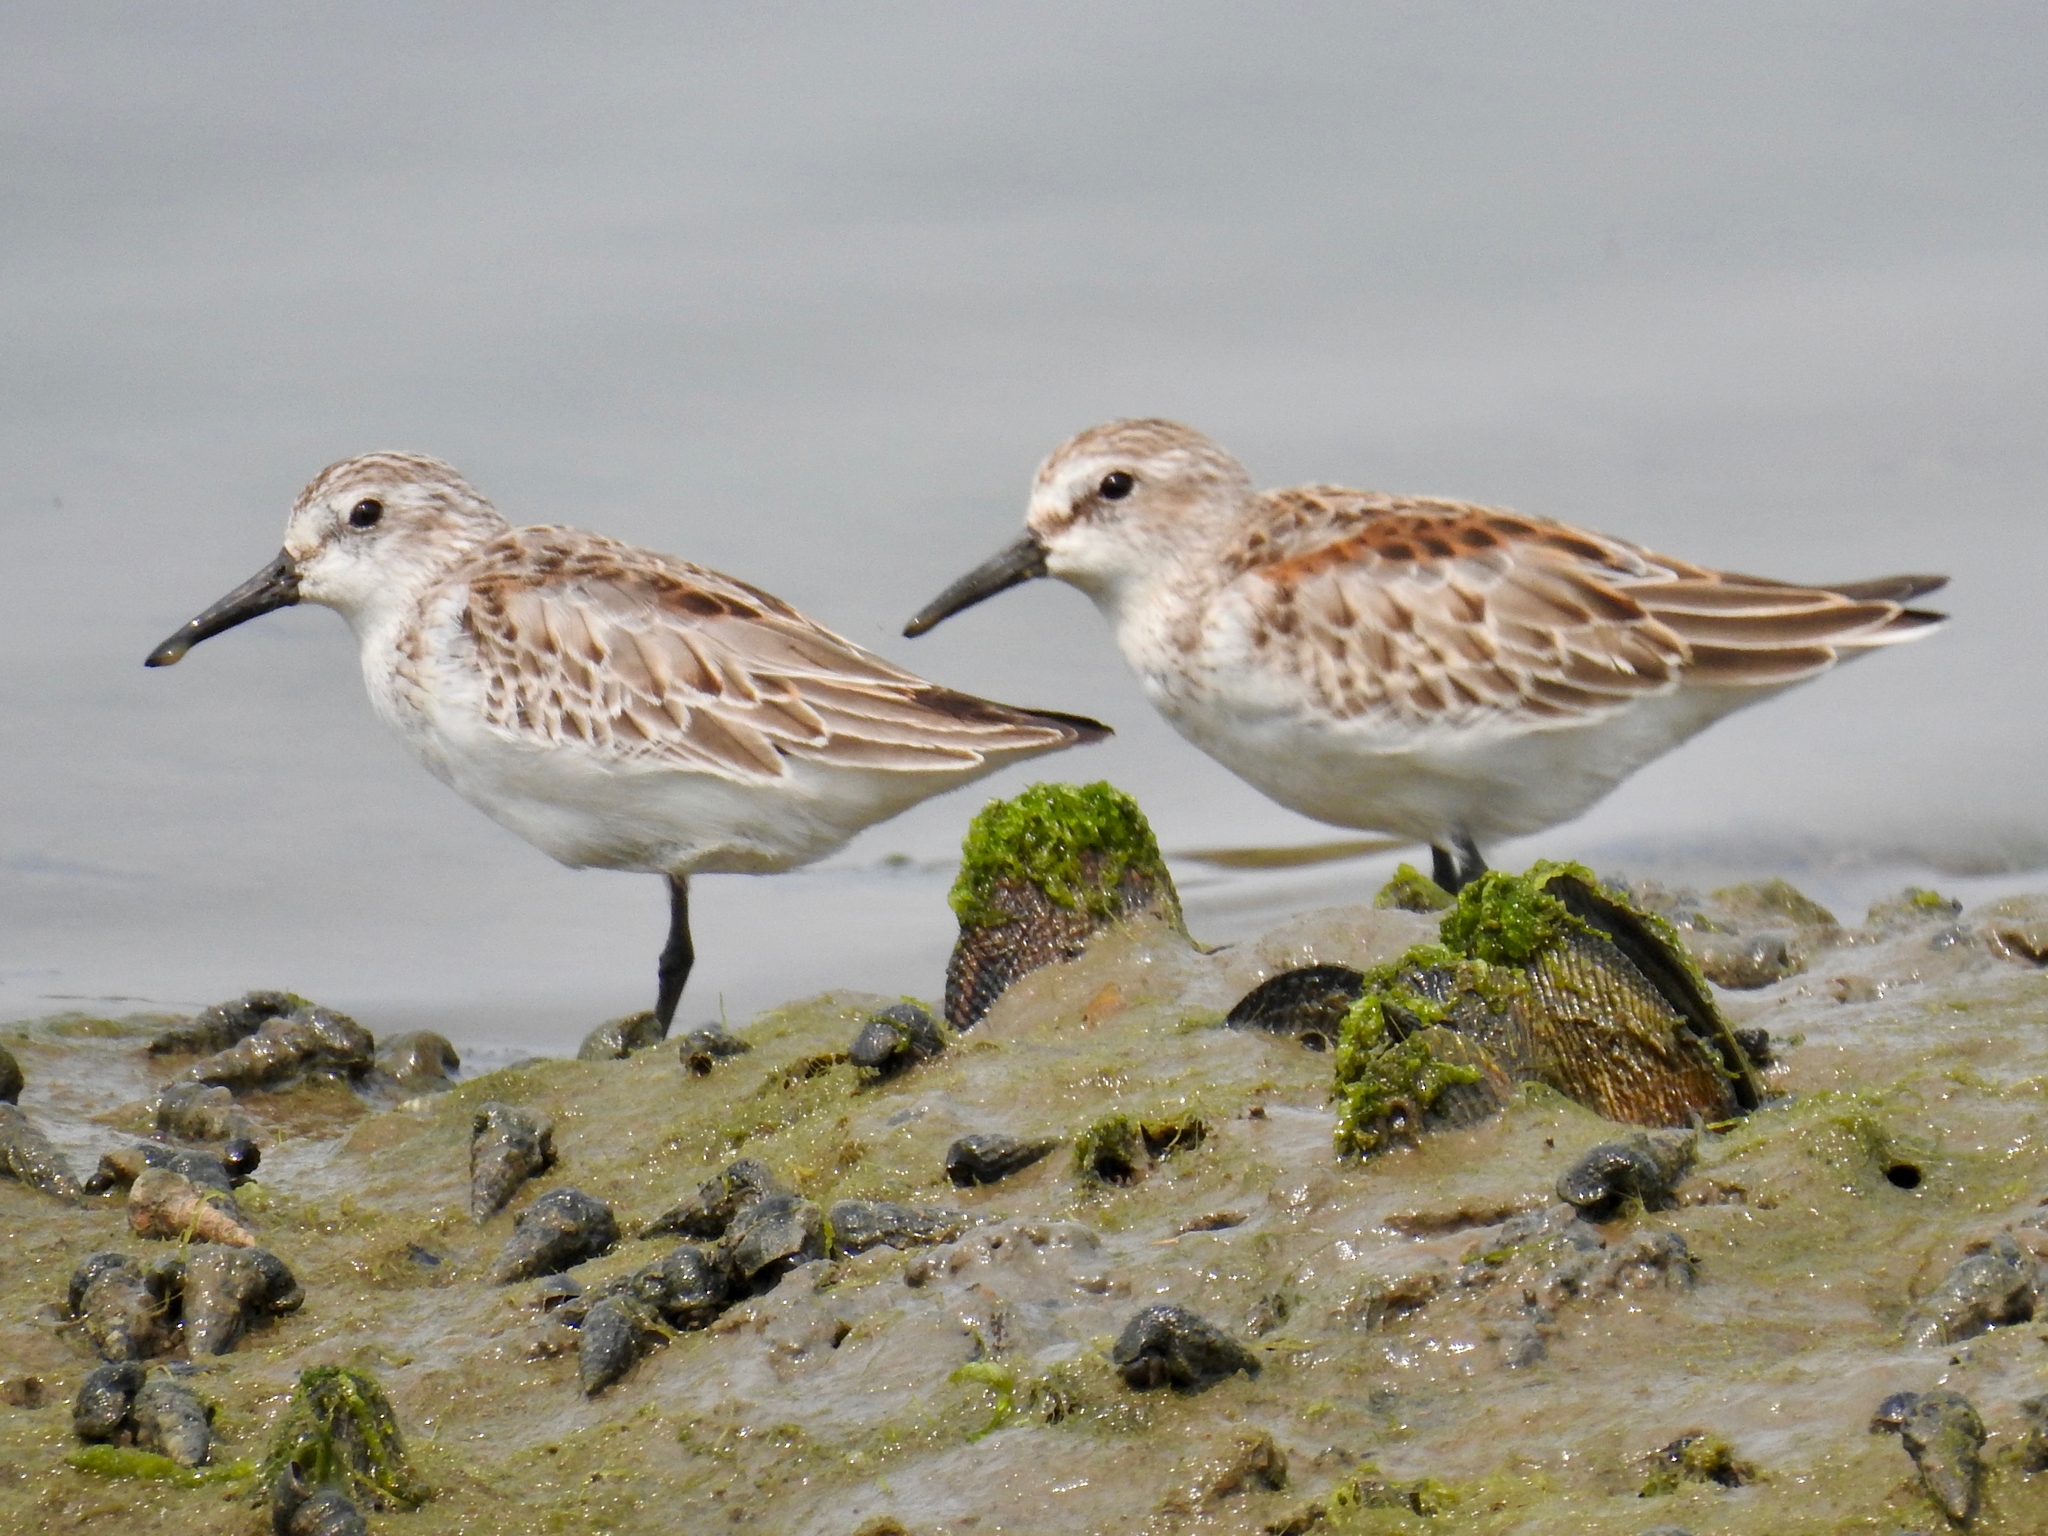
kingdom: Animalia
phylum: Chordata
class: Aves
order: Charadriiformes
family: Scolopacidae
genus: Calidris
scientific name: Calidris mauri
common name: Western sandpiper
